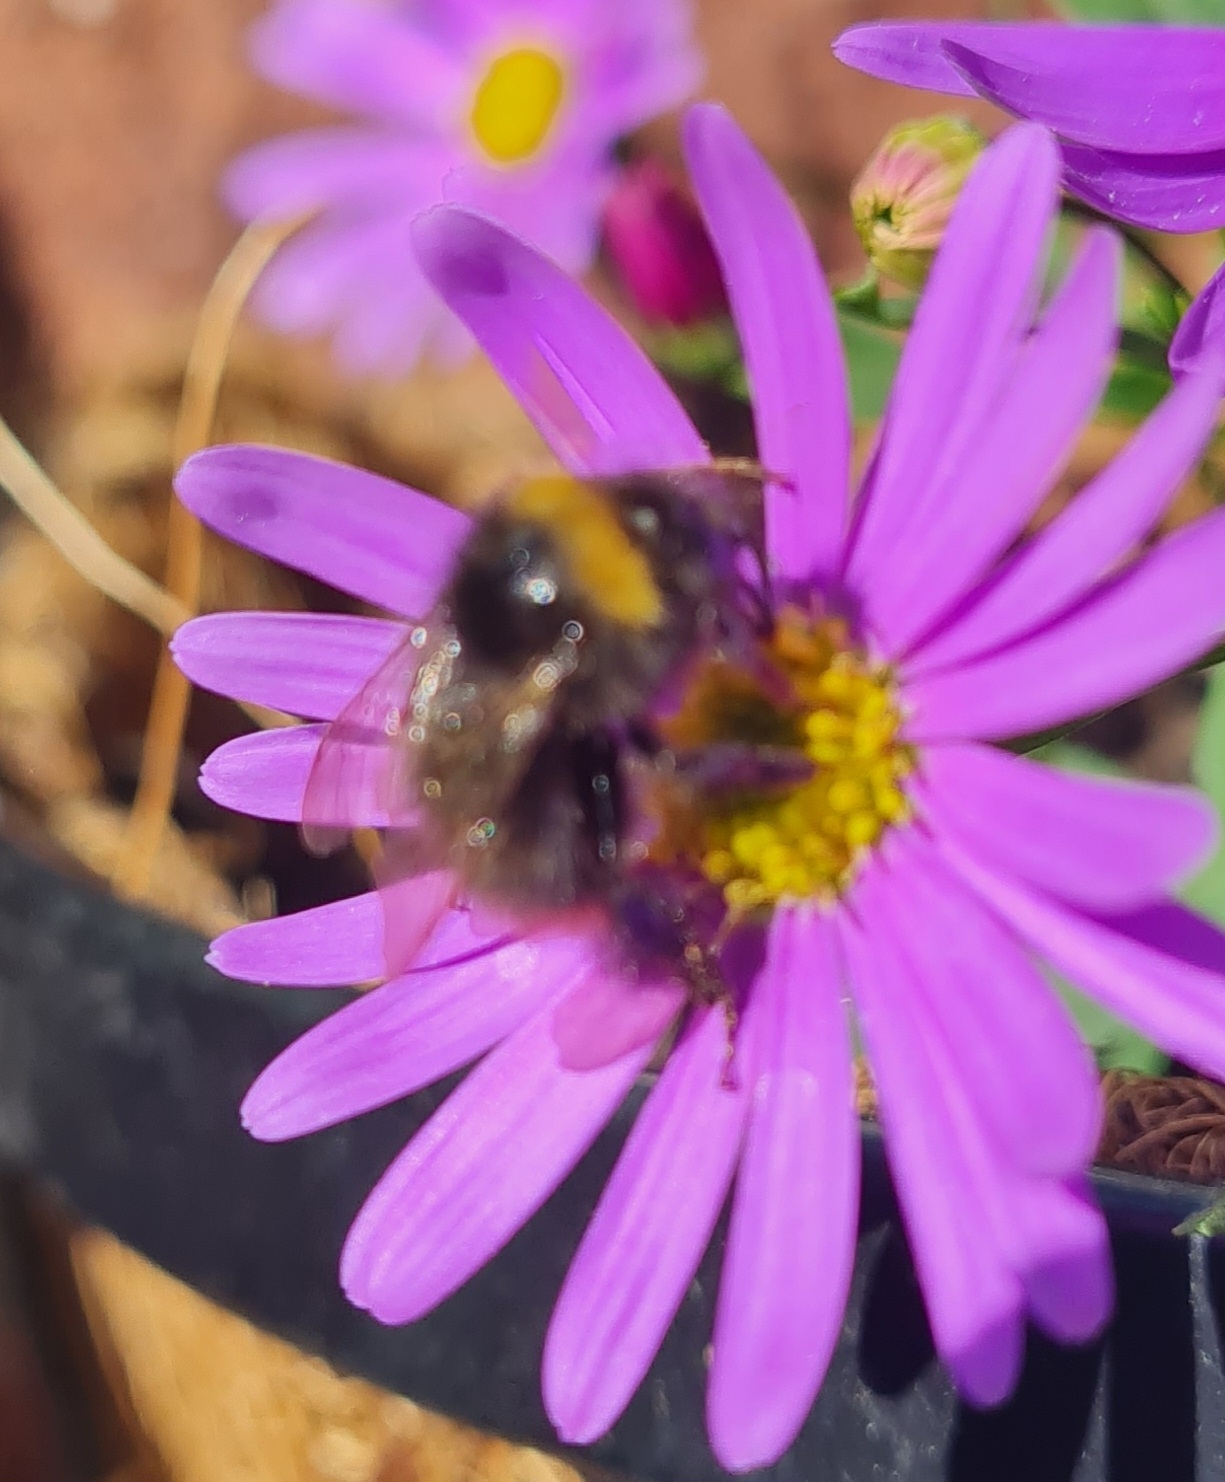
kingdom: Animalia
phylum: Arthropoda
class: Insecta
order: Hymenoptera
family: Apidae
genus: Bombus
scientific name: Bombus pratorum
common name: Early humble-bee
